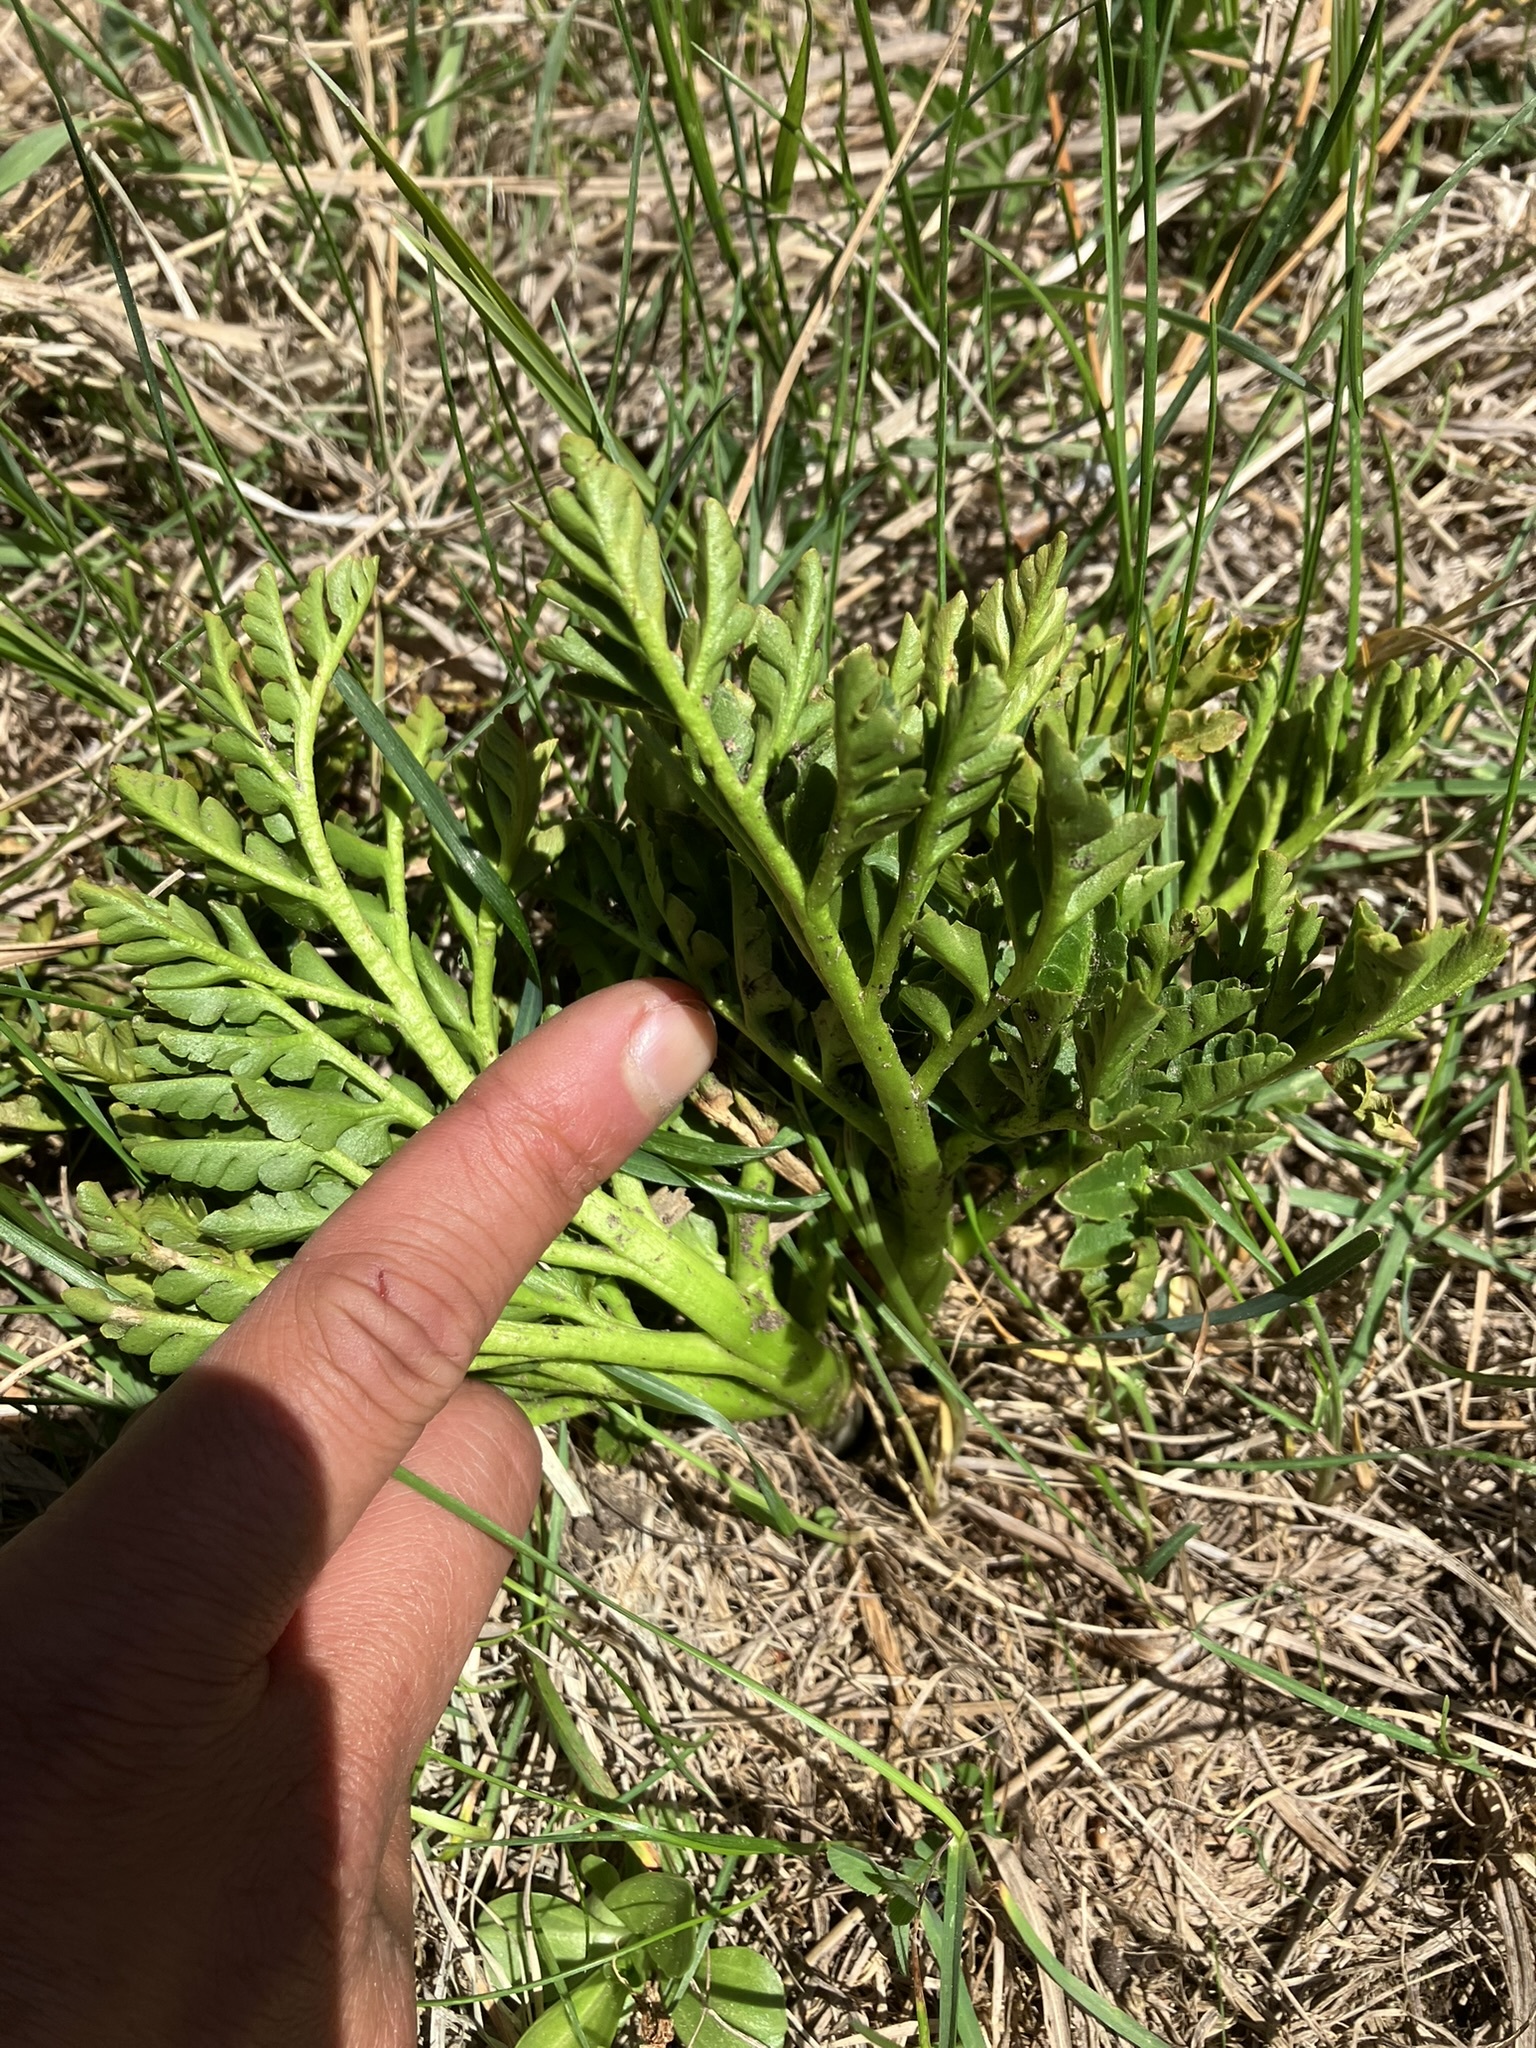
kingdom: Plantae
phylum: Tracheophyta
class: Polypodiopsida
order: Ophioglossales
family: Ophioglossaceae
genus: Sceptridium
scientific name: Sceptridium multifidum
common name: Leathery grape fern
